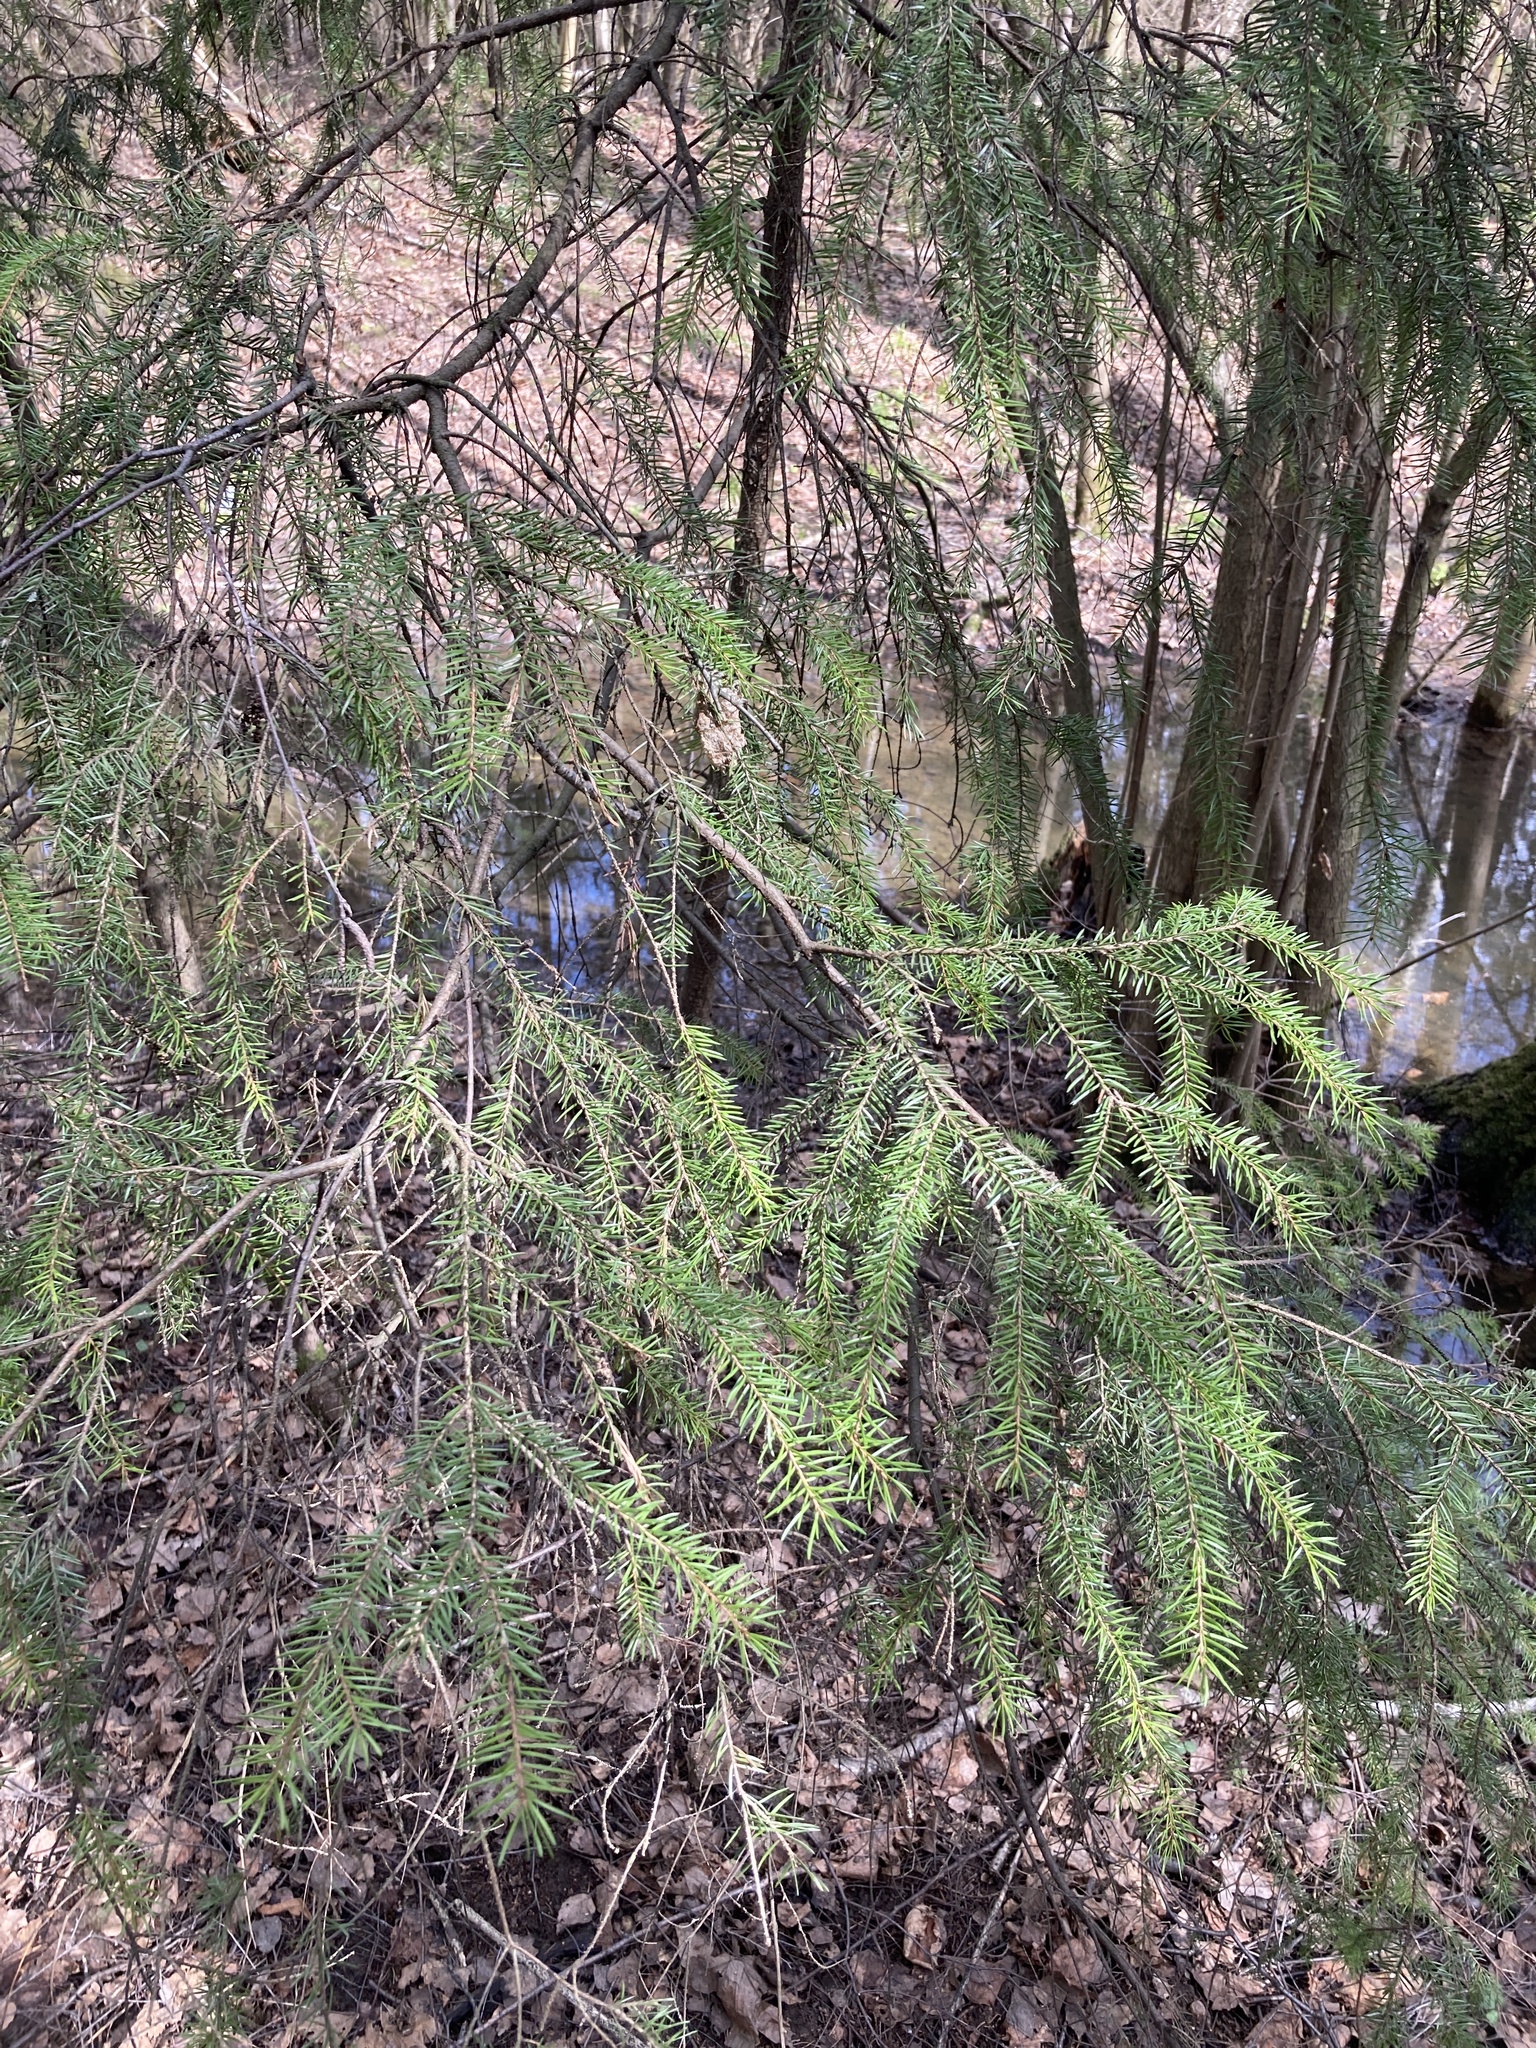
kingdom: Plantae
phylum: Tracheophyta
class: Pinopsida
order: Pinales
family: Pinaceae
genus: Picea
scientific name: Picea abies
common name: Norway spruce
